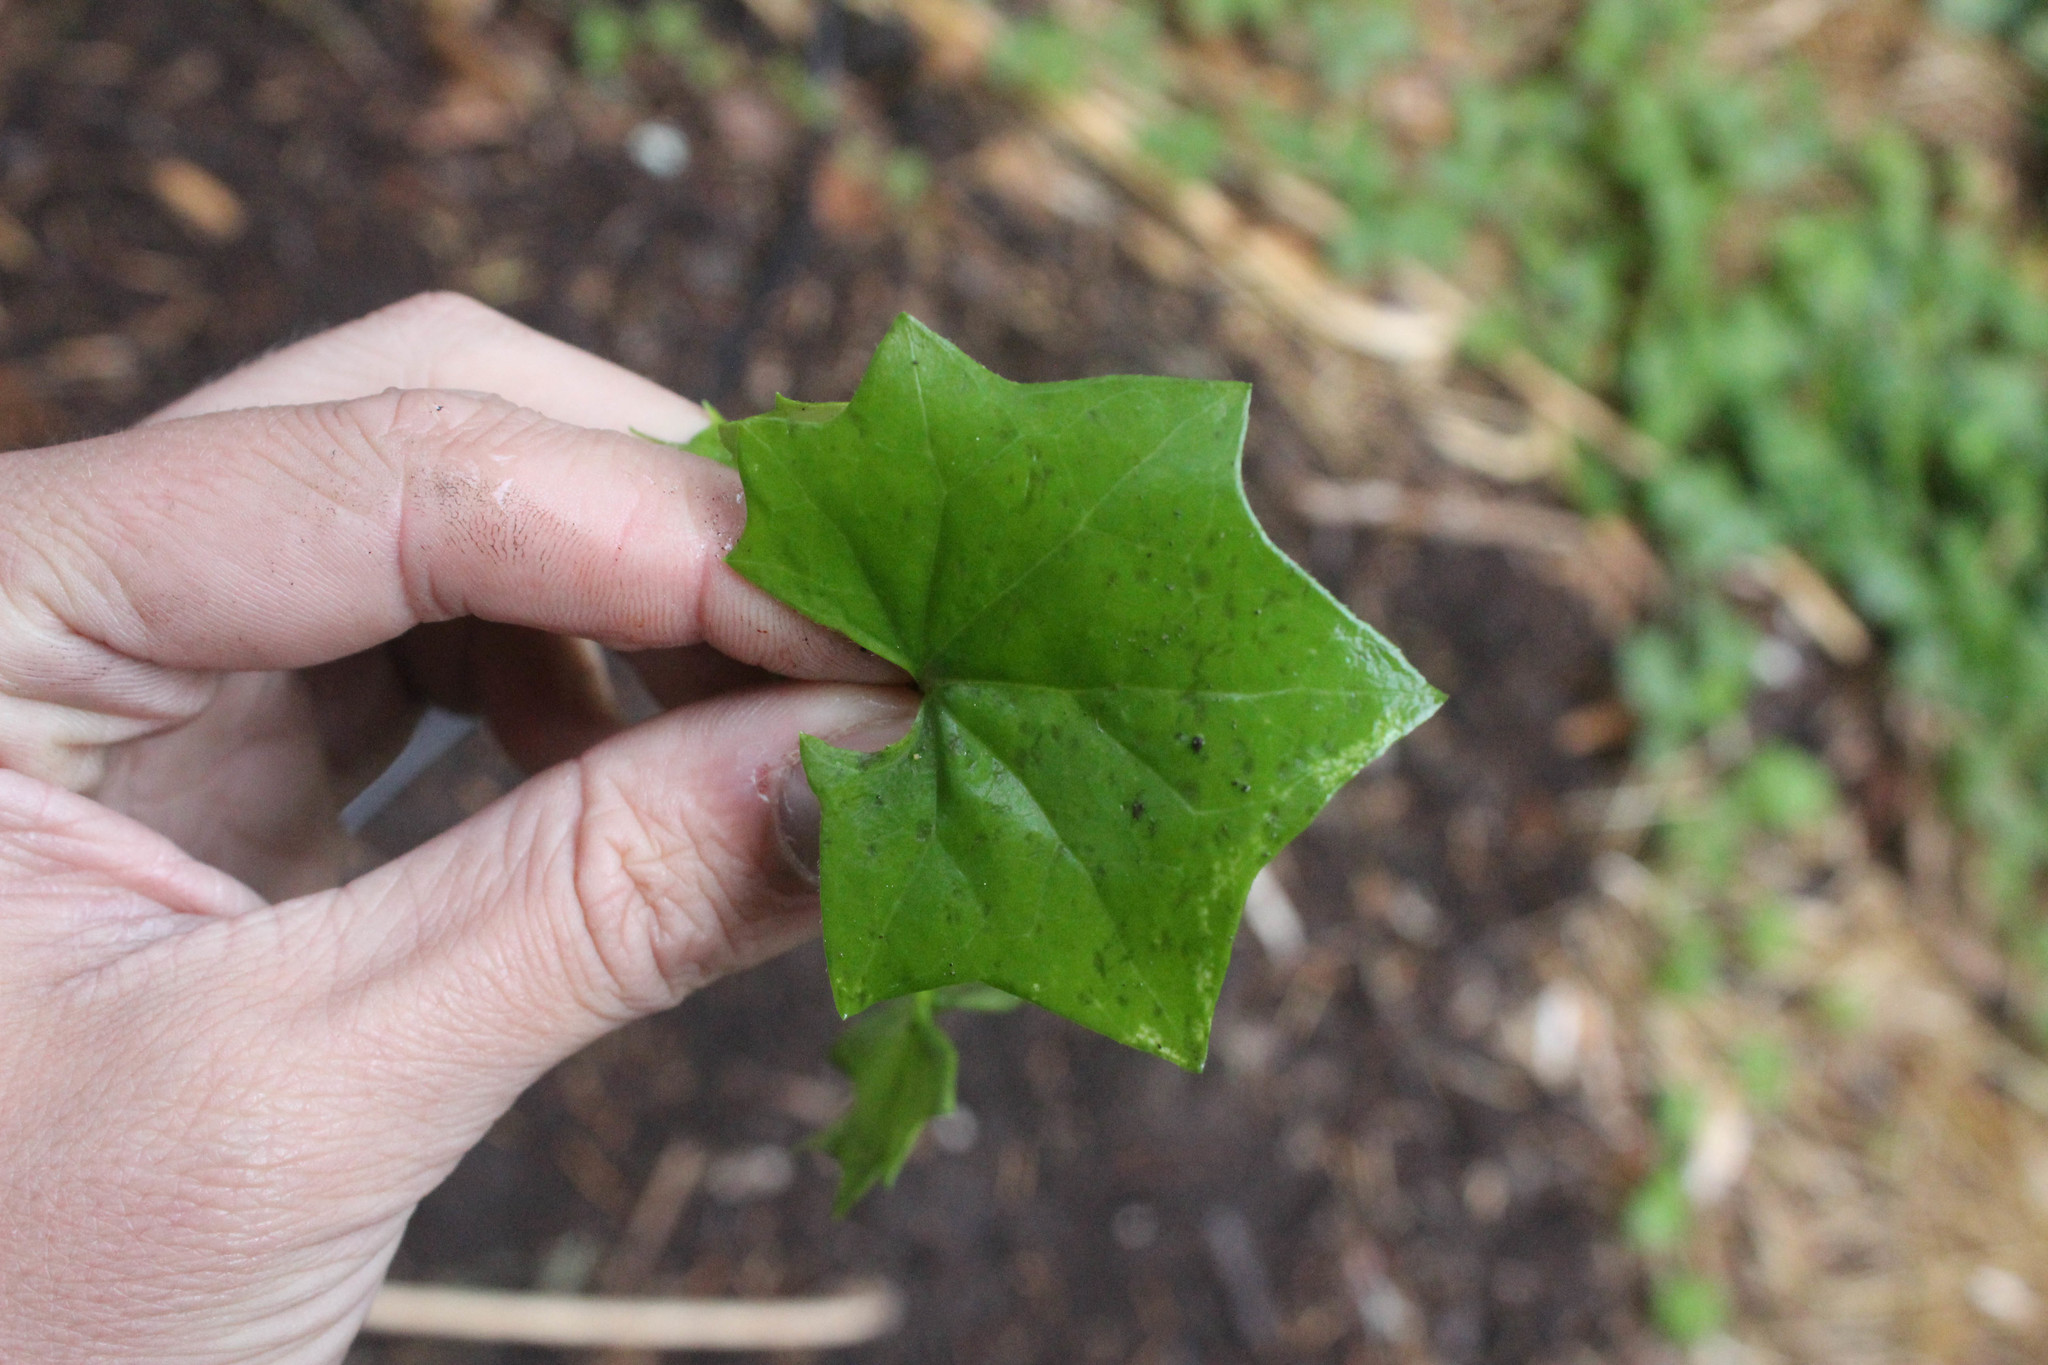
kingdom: Plantae
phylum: Tracheophyta
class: Magnoliopsida
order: Asterales
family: Asteraceae
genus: Delairea
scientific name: Delairea odorata
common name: Cape-ivy
